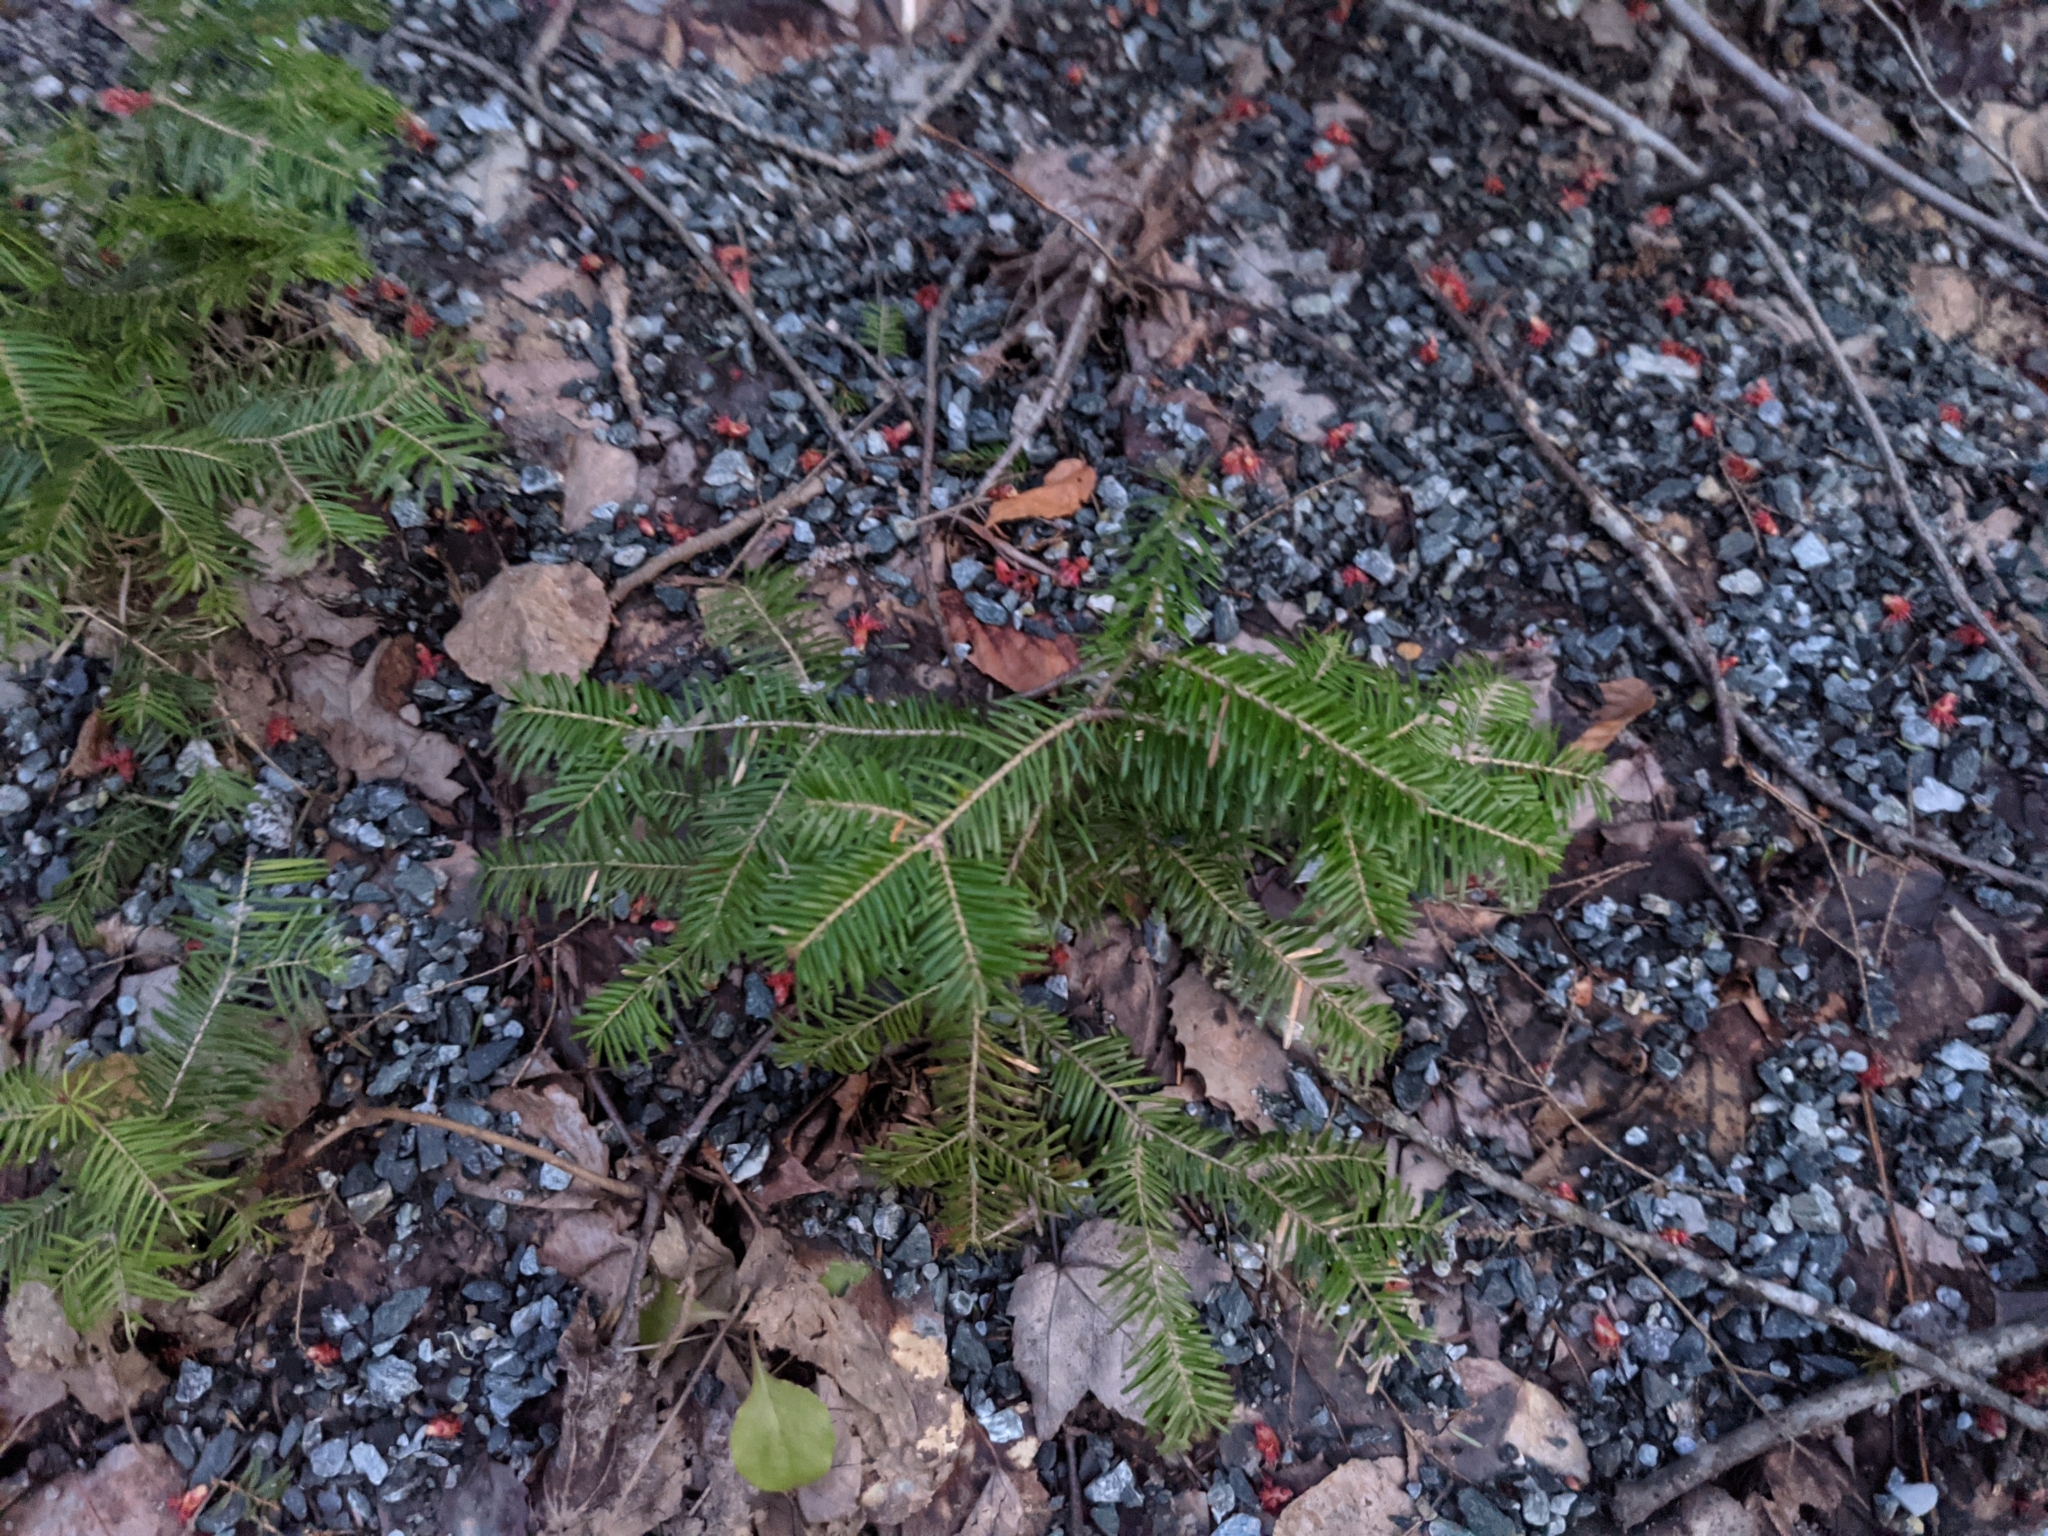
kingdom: Plantae
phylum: Tracheophyta
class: Pinopsida
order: Pinales
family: Pinaceae
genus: Abies
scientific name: Abies balsamea
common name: Balsam fir
